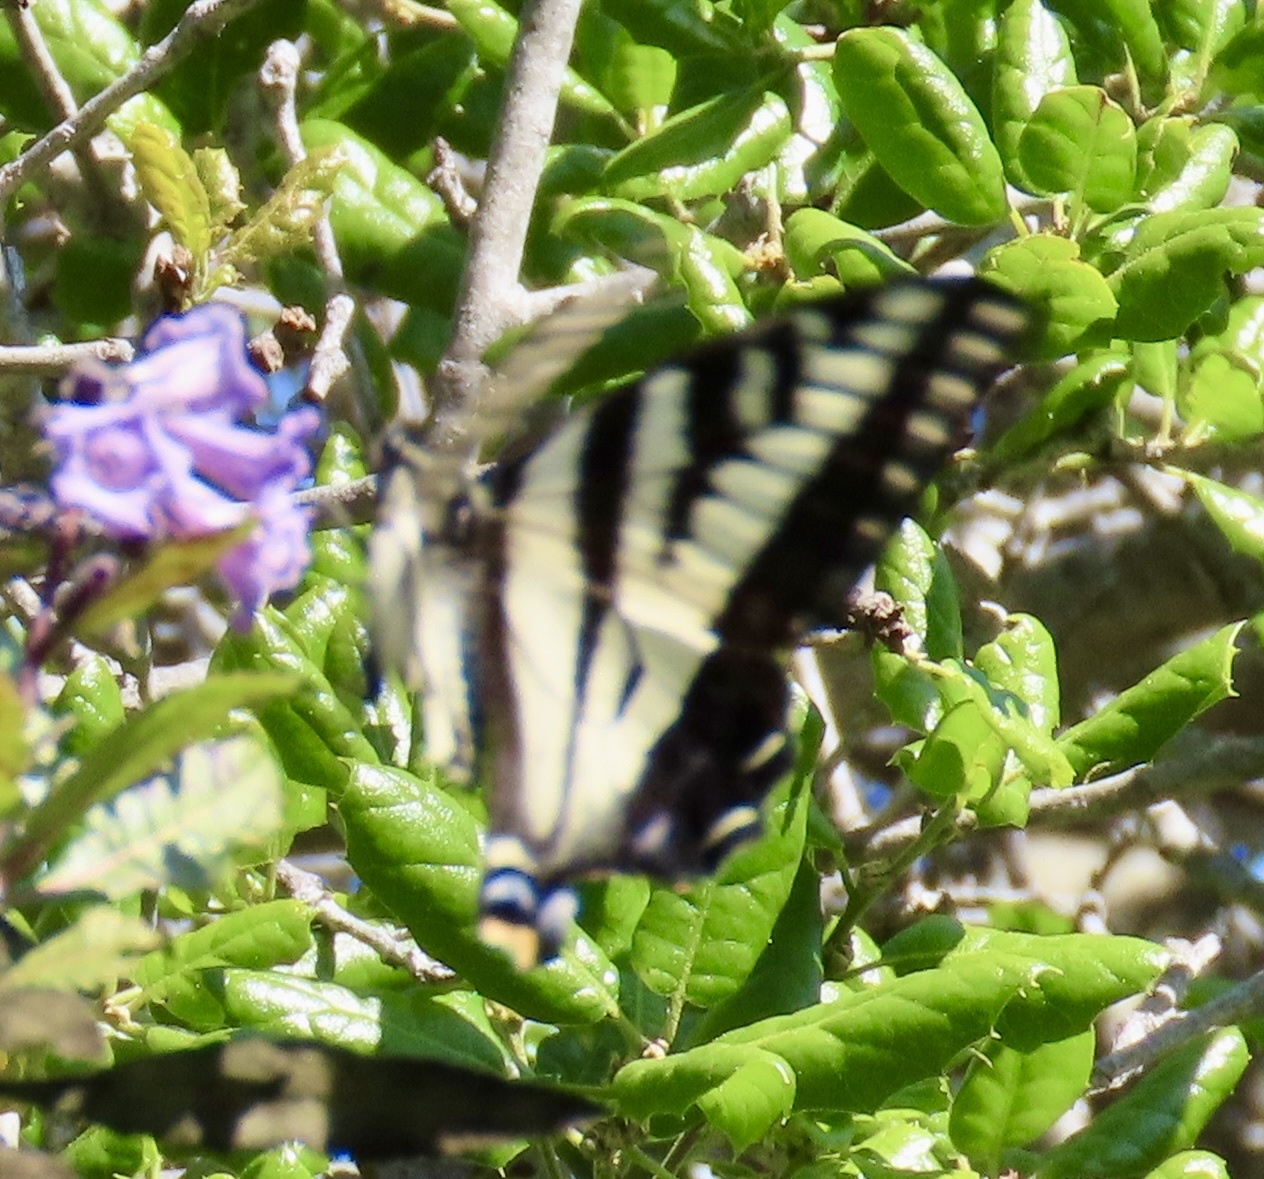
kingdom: Animalia
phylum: Arthropoda
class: Insecta
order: Lepidoptera
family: Papilionidae
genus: Papilio
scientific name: Papilio eurymedon
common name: Pale tiger swallowtail
